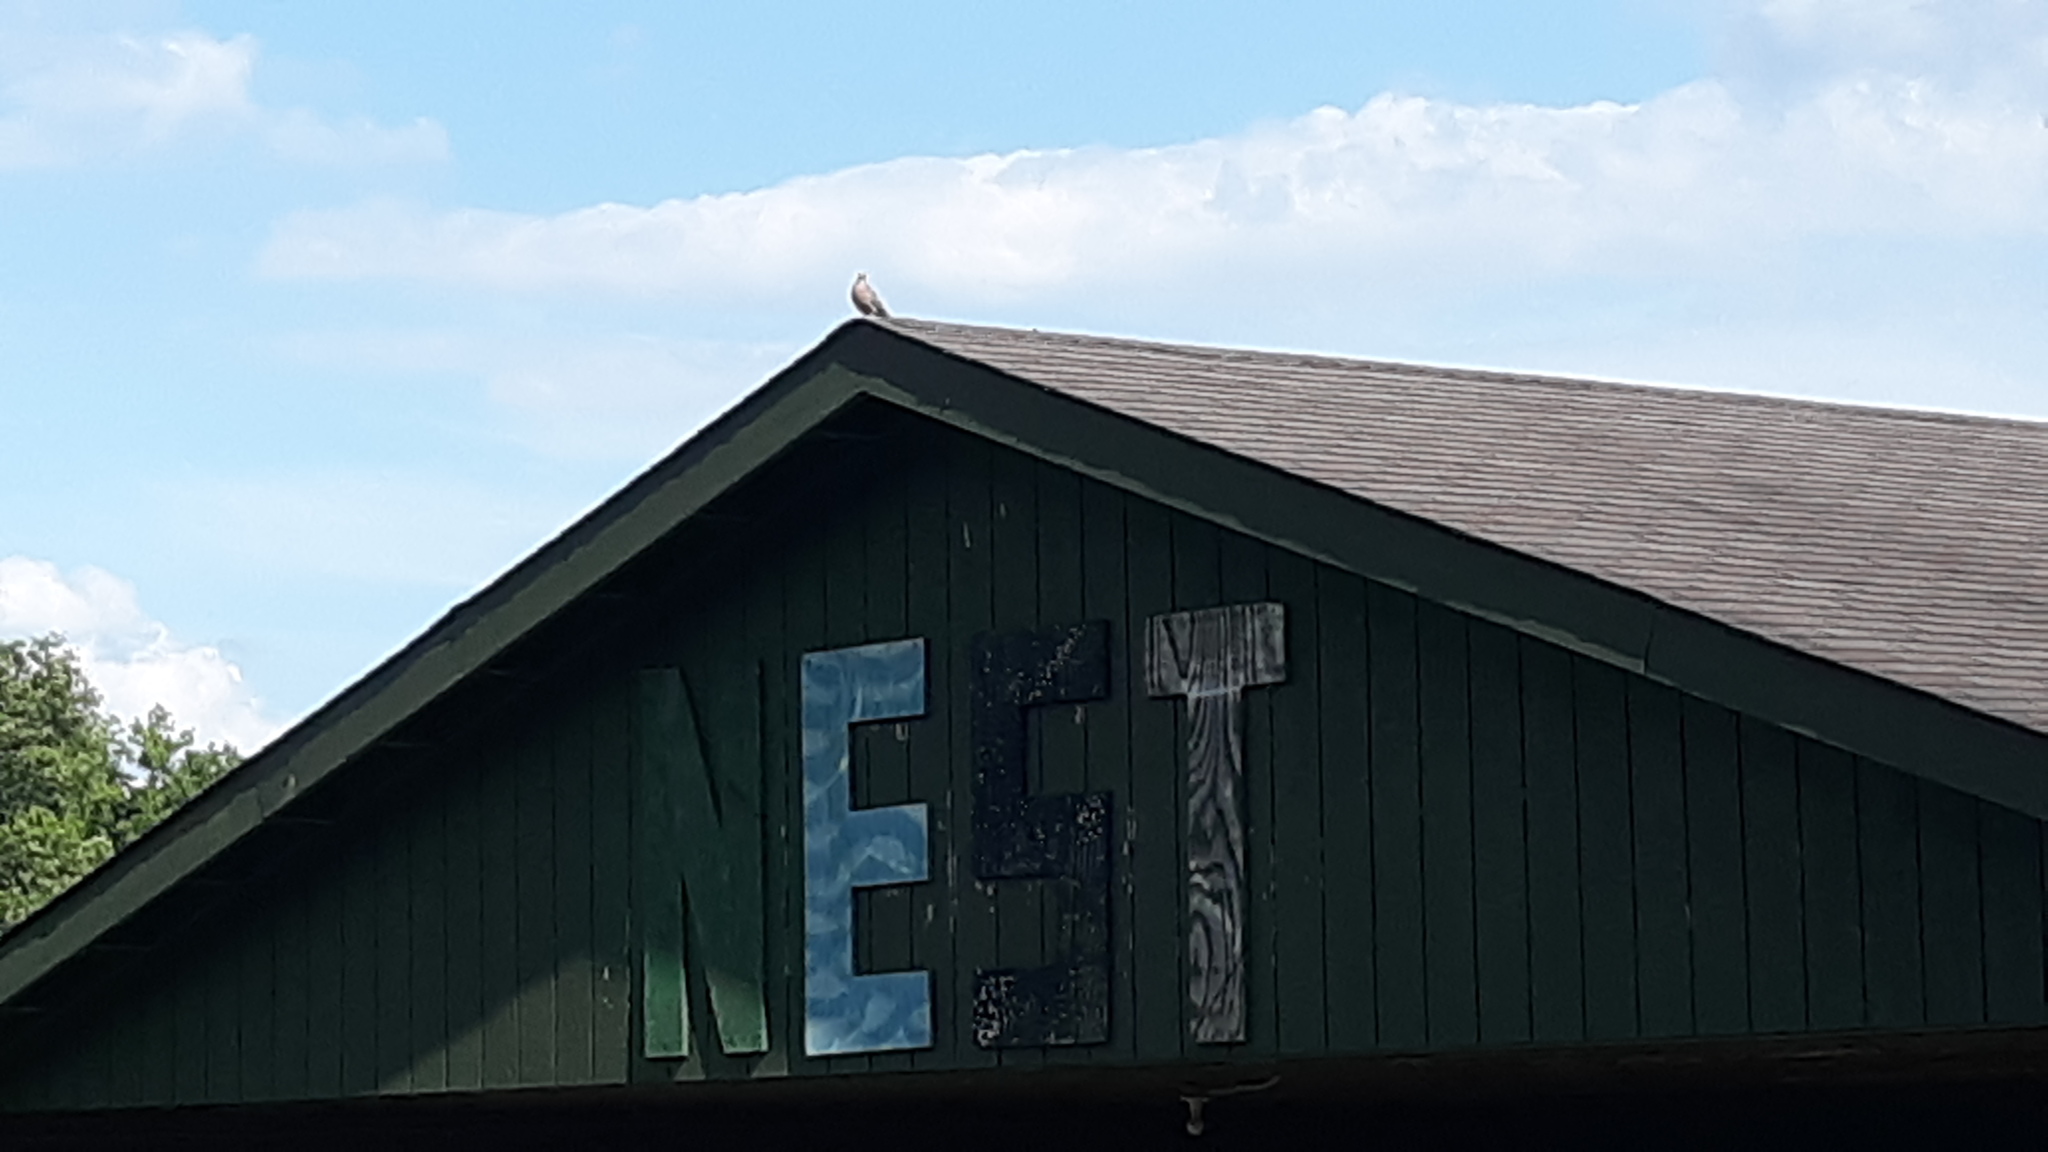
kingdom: Animalia
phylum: Chordata
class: Aves
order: Columbiformes
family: Columbidae
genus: Zenaida
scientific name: Zenaida macroura
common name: Mourning dove
